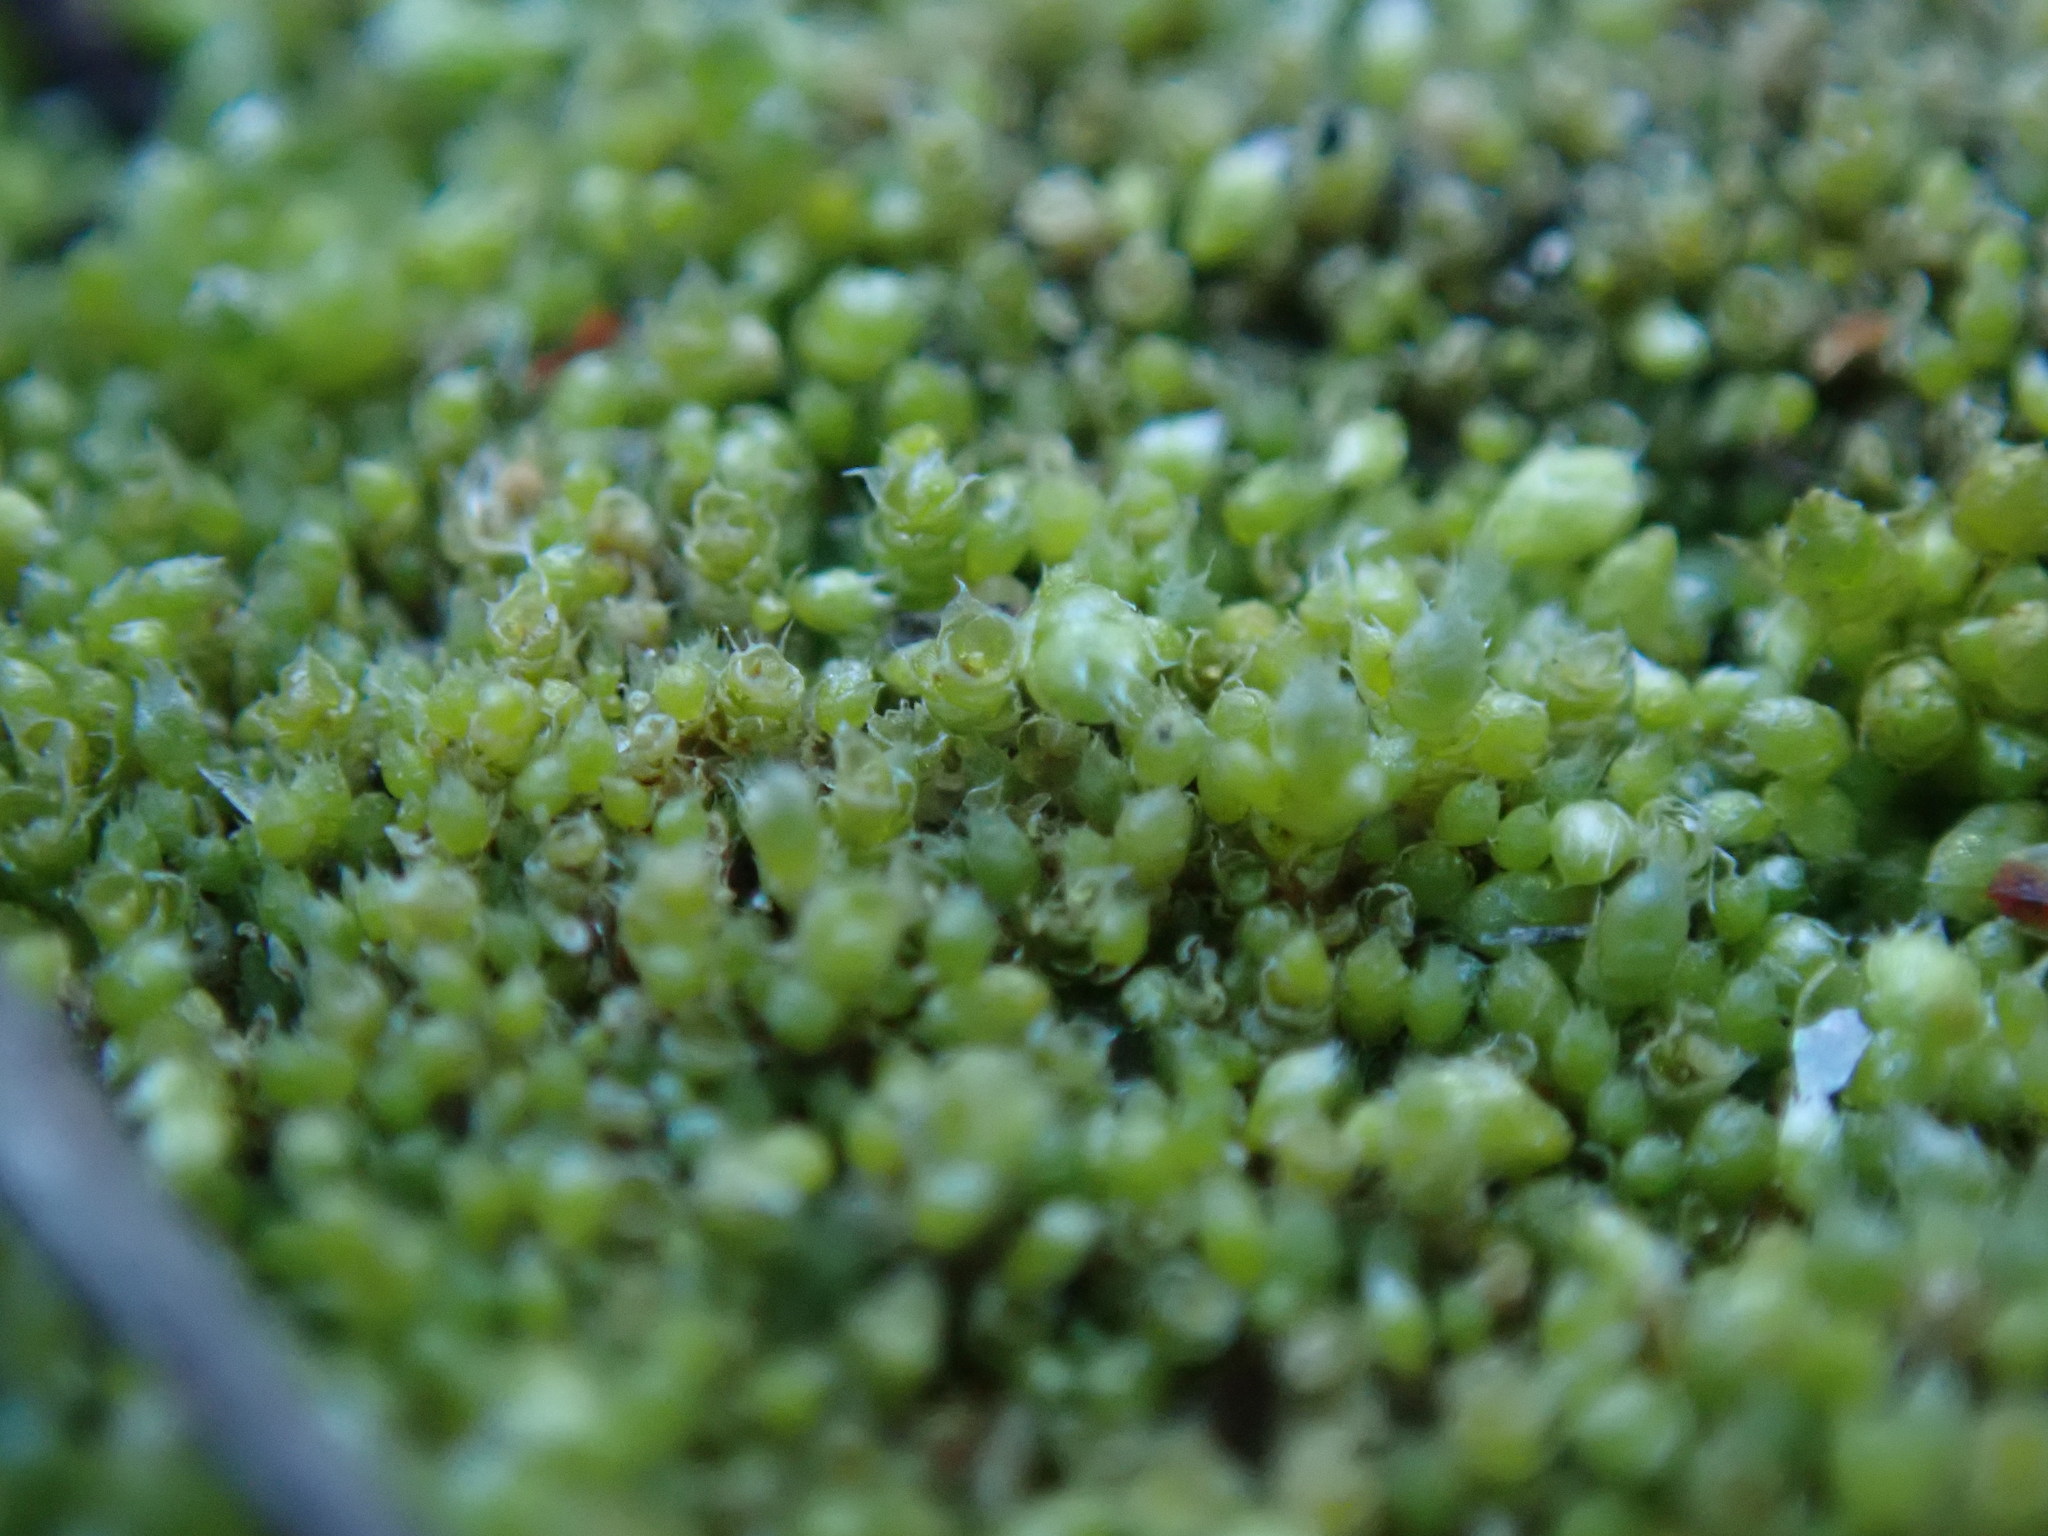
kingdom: Plantae
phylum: Bryophyta
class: Bryopsida
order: Bryales
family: Bryaceae
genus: Bryum
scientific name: Bryum argenteum
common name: Silver-moss
